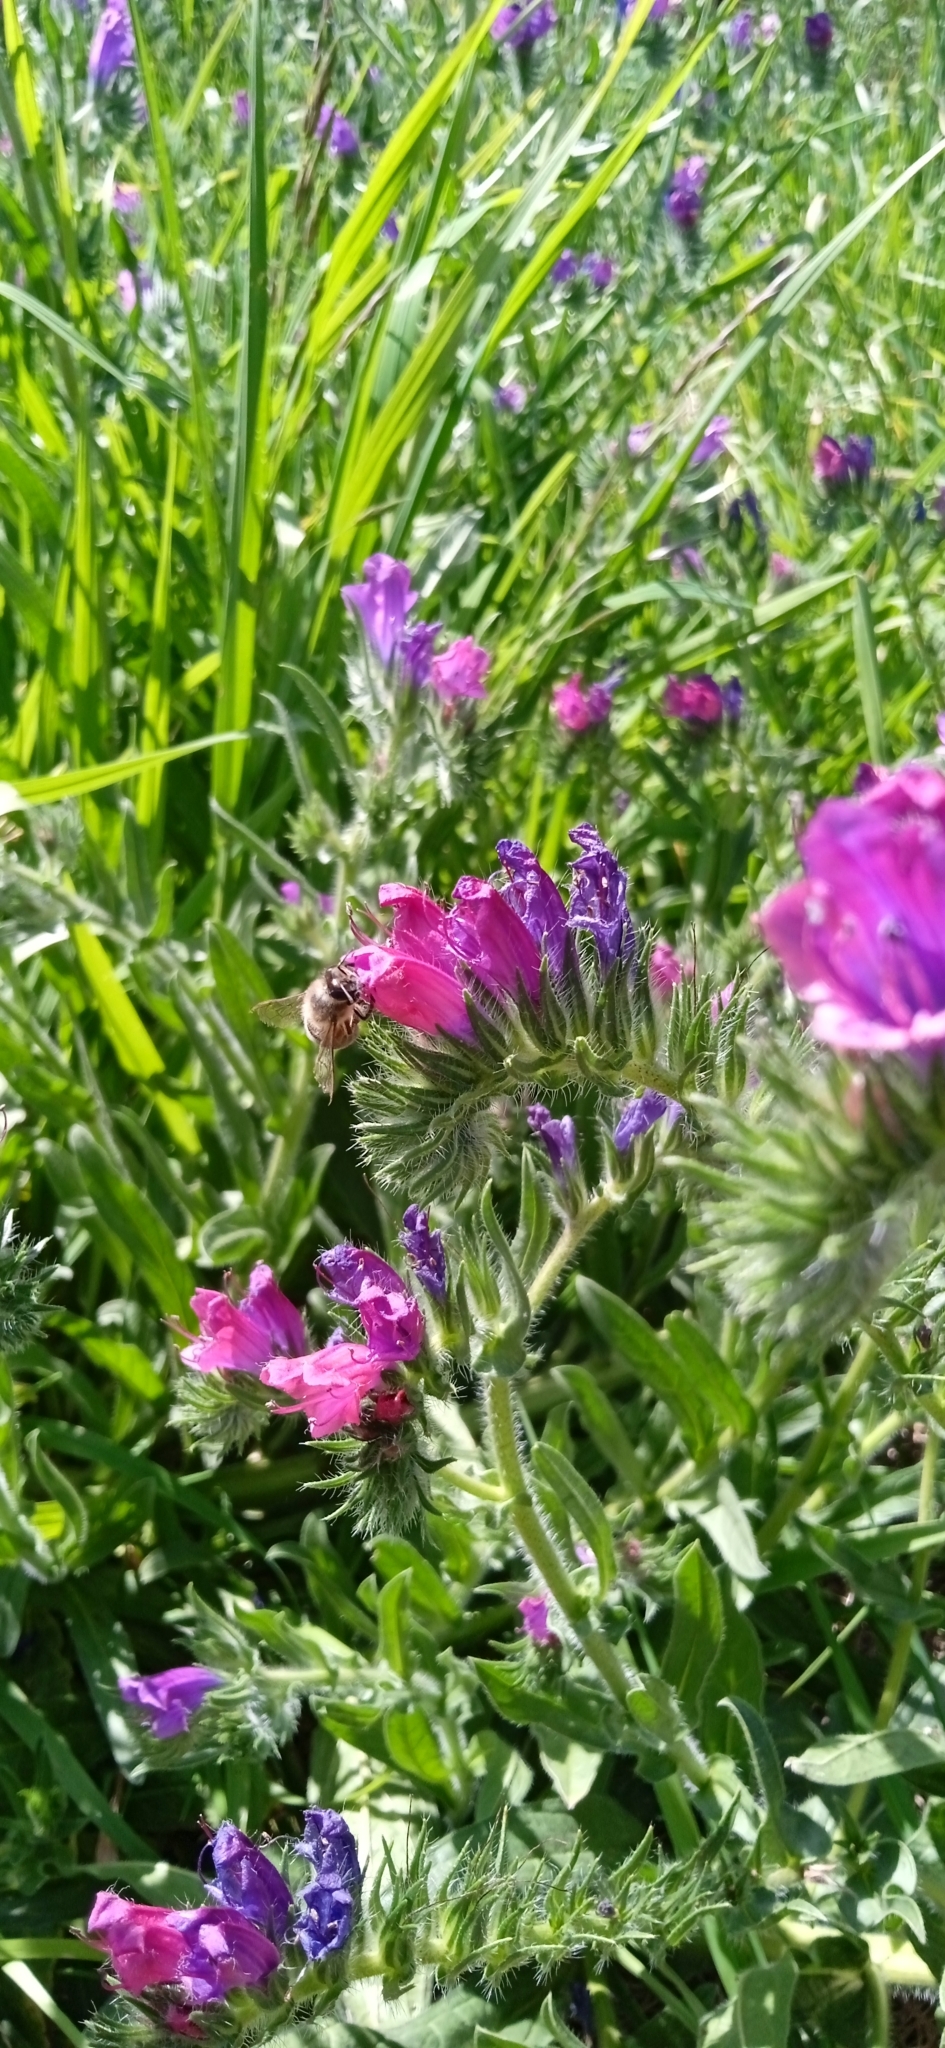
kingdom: Animalia
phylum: Arthropoda
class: Insecta
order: Hymenoptera
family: Apidae
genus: Apis
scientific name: Apis mellifera
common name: Honey bee
